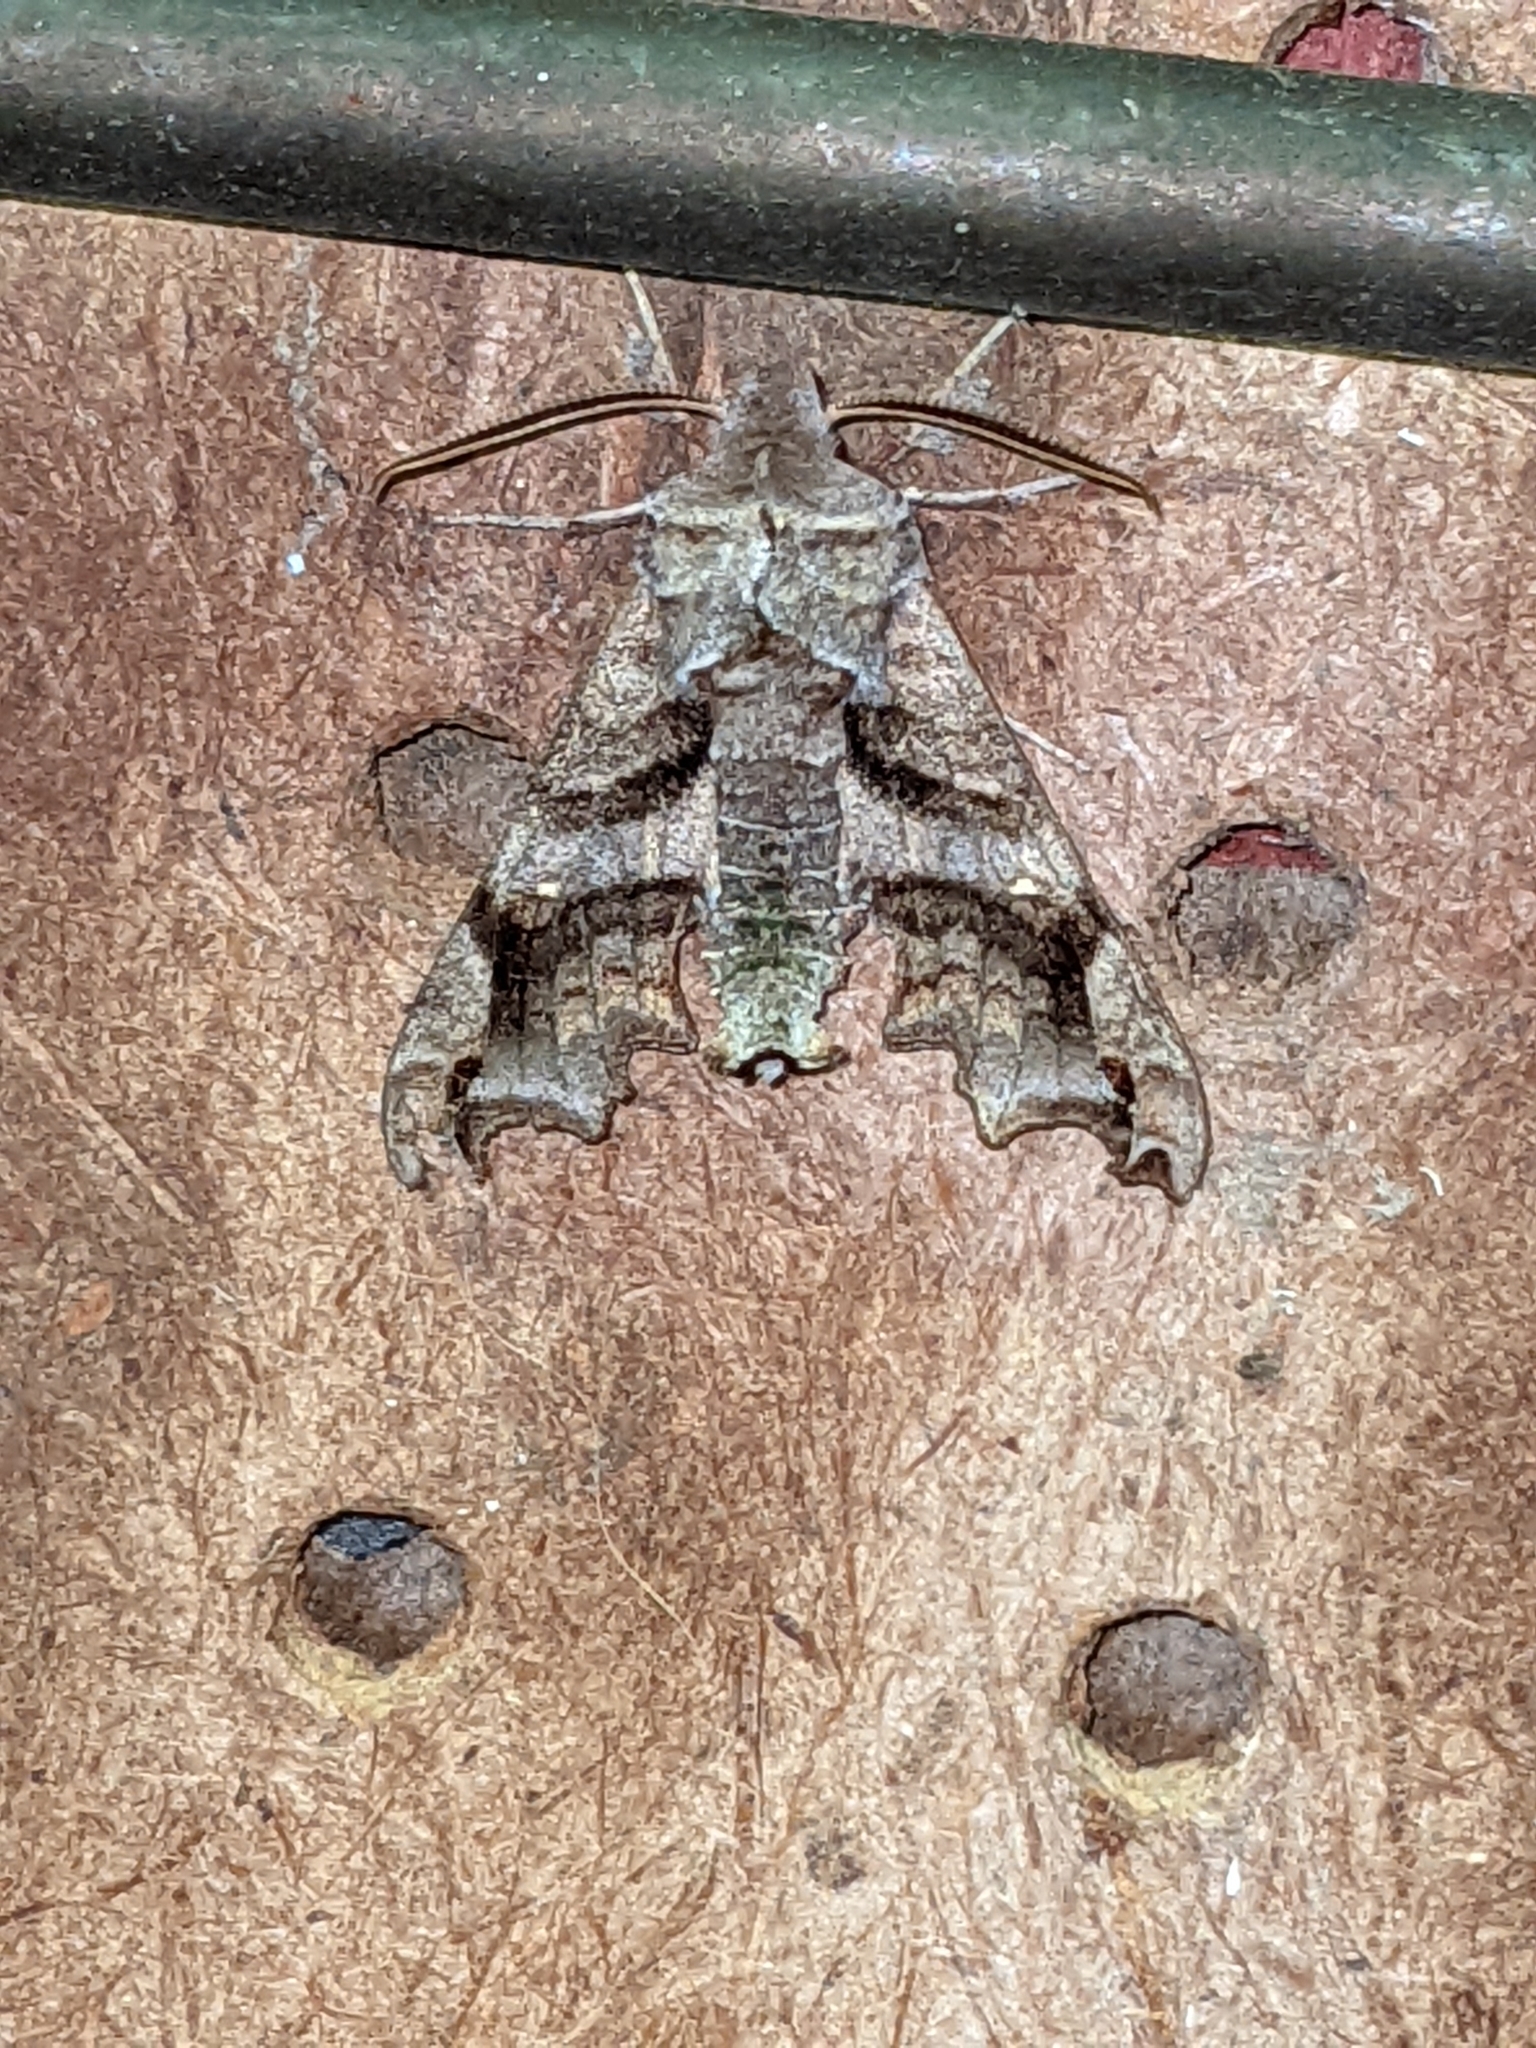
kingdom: Animalia
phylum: Arthropoda
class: Insecta
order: Lepidoptera
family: Sphingidae
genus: Deidamia
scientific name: Deidamia inscriptum
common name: Lettered sphinx
